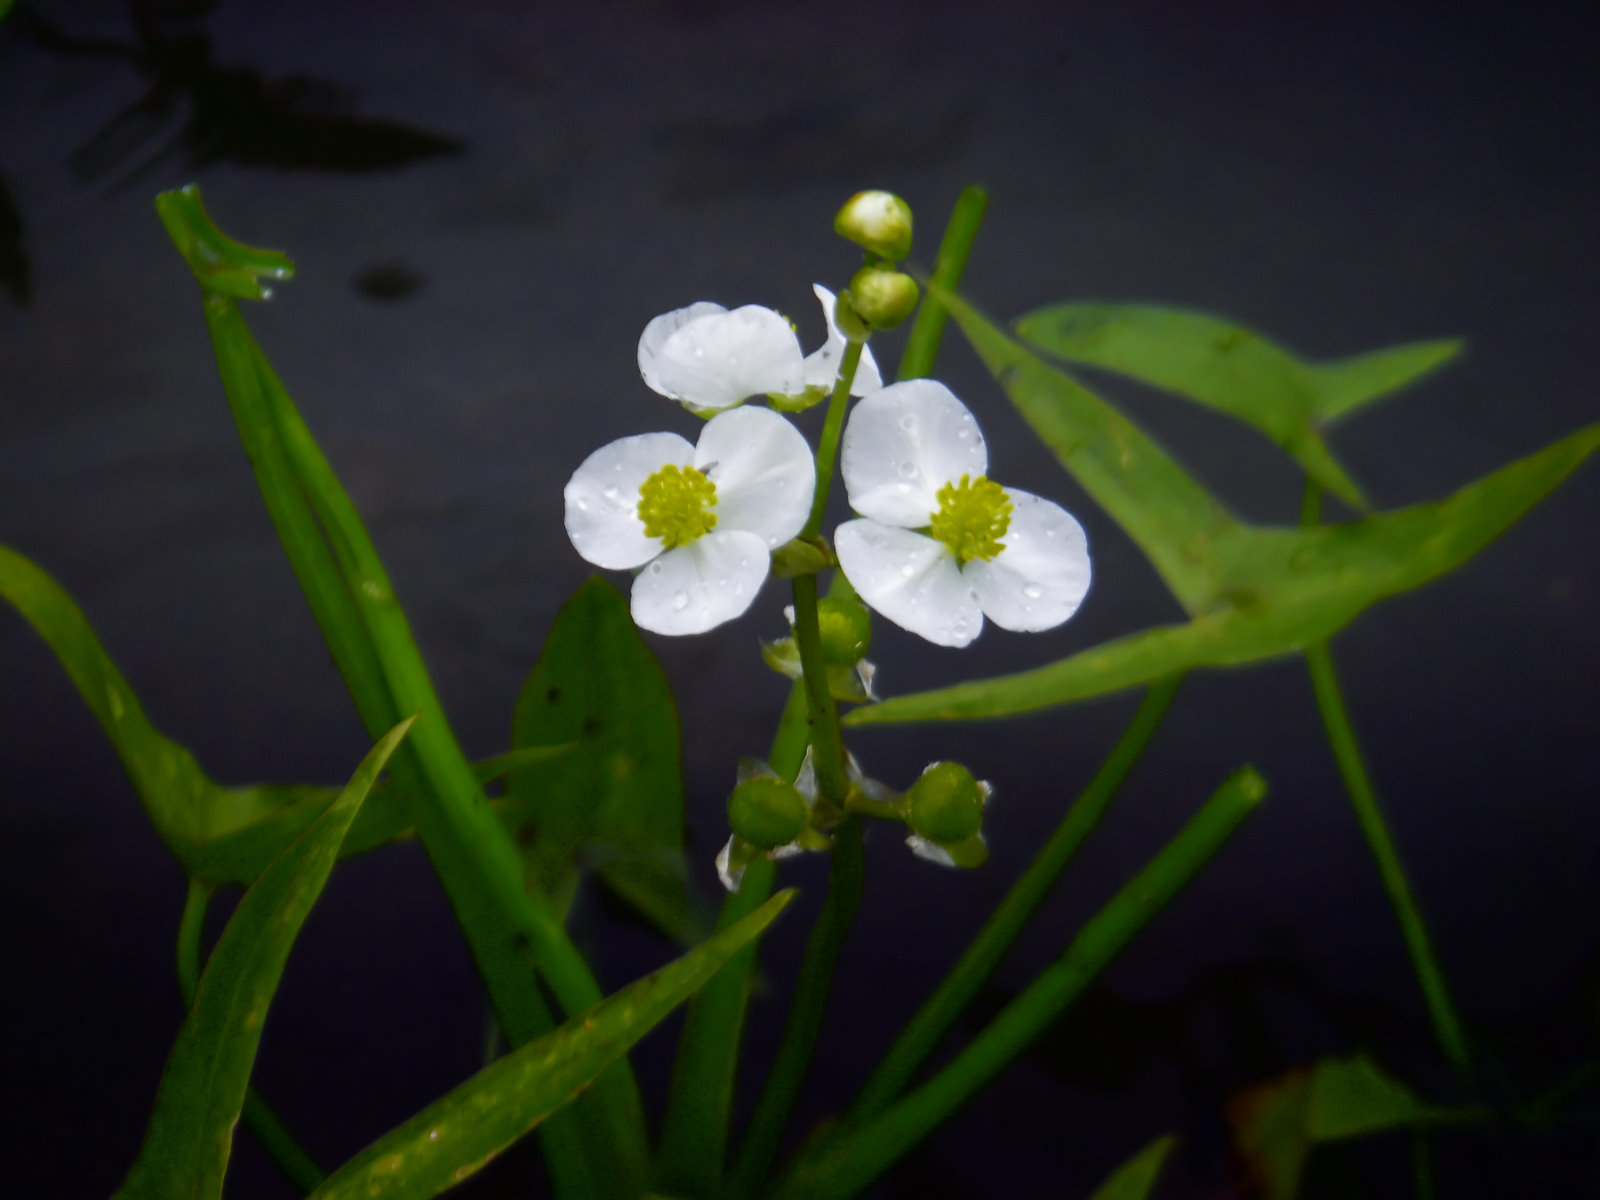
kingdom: Plantae
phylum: Tracheophyta
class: Liliopsida
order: Alismatales
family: Alismataceae
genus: Sagittaria
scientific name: Sagittaria latifolia
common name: Duck-potato
